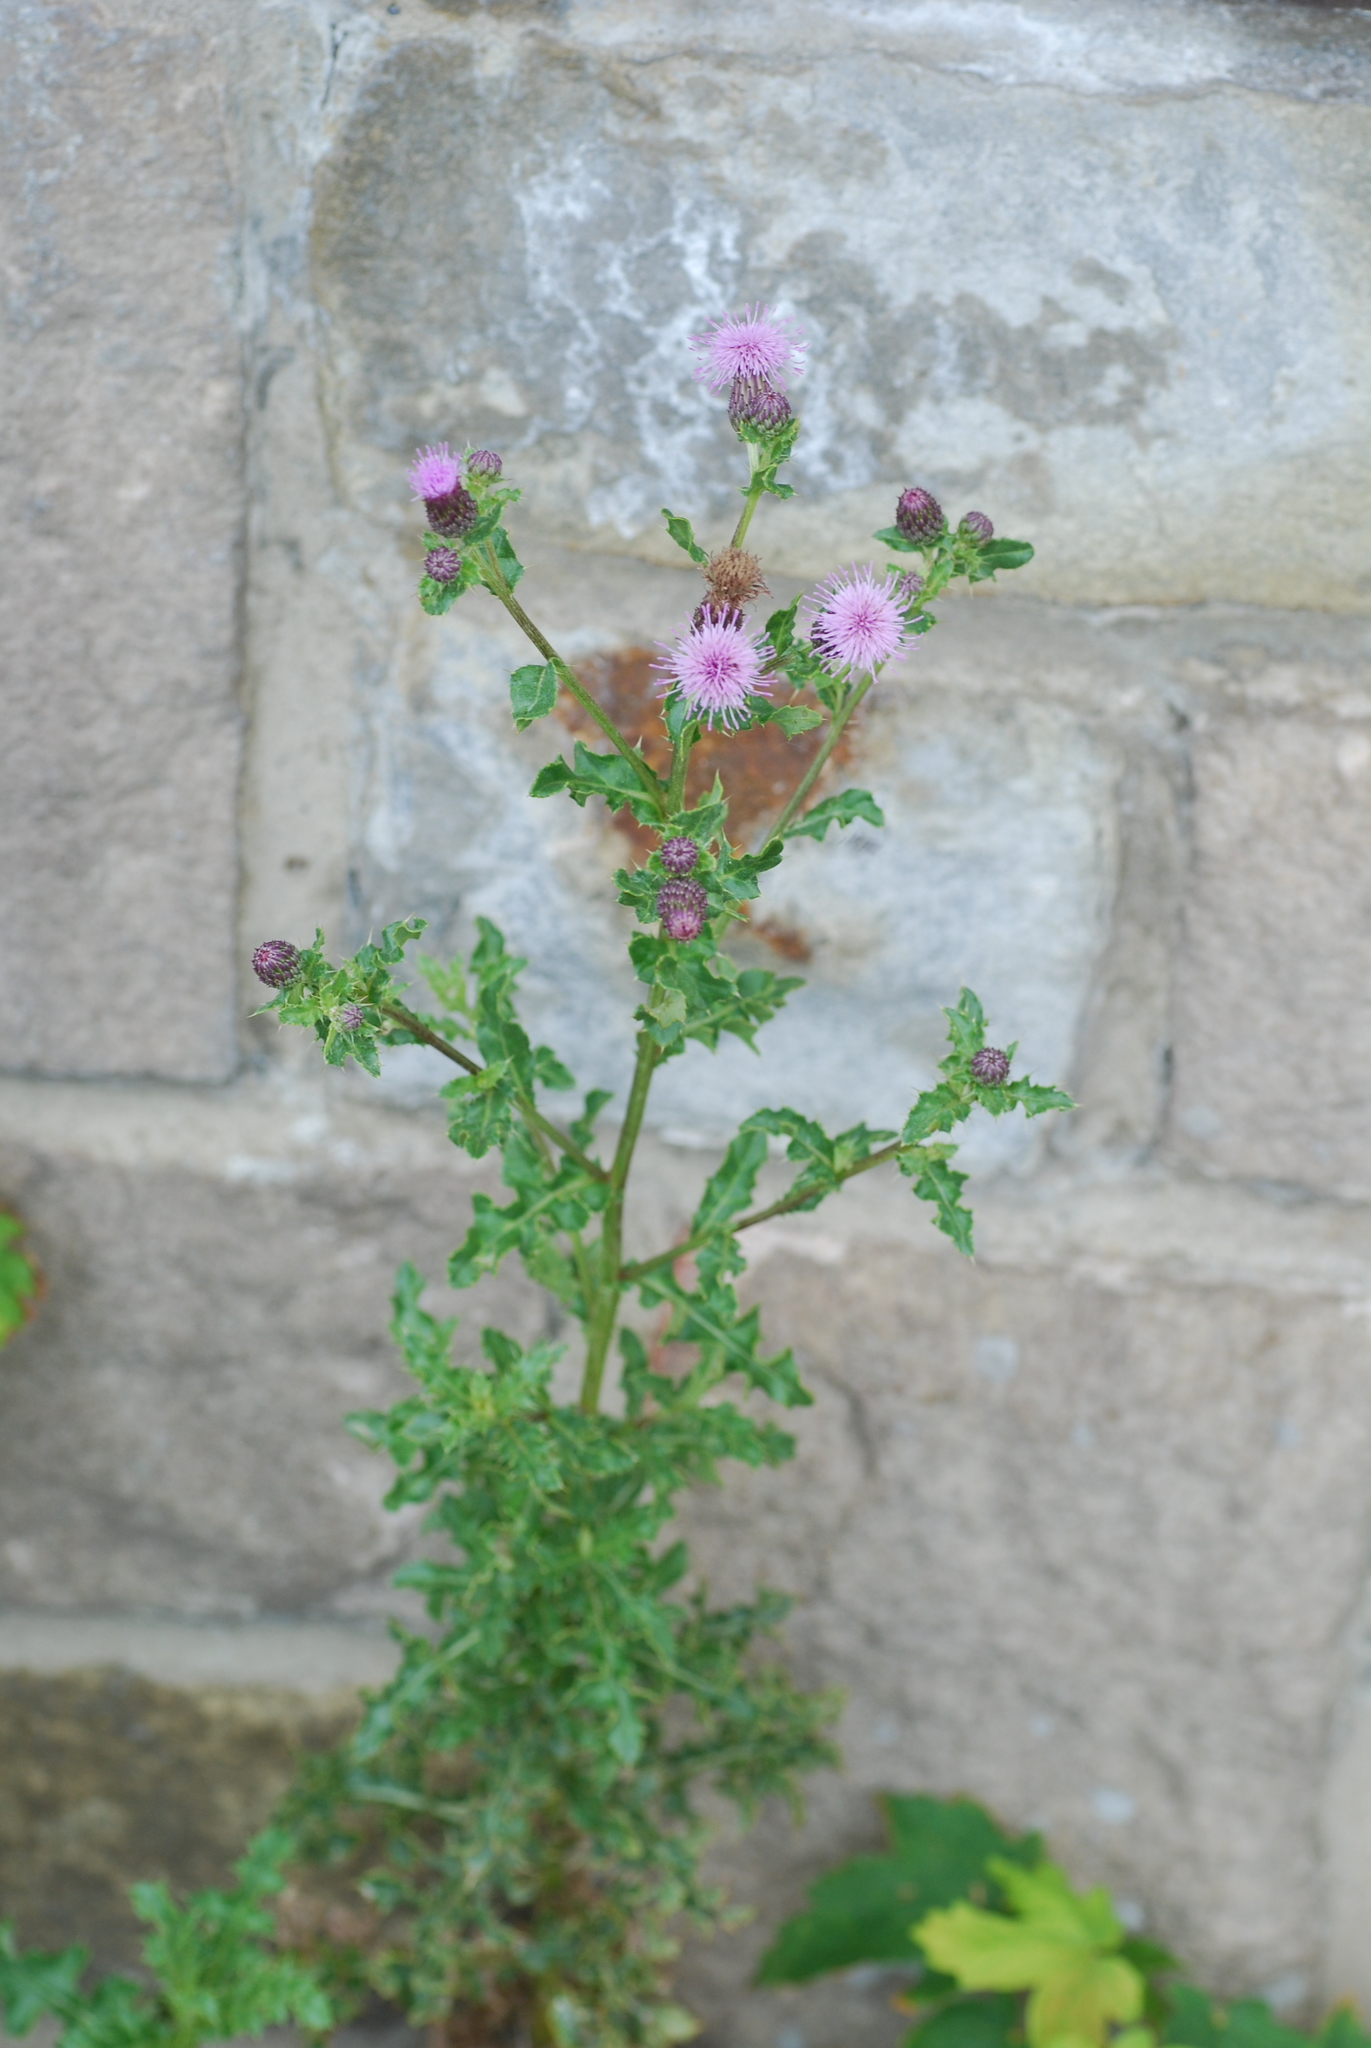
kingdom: Plantae
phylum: Tracheophyta
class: Magnoliopsida
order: Asterales
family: Asteraceae
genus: Cirsium
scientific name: Cirsium arvense
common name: Creeping thistle
